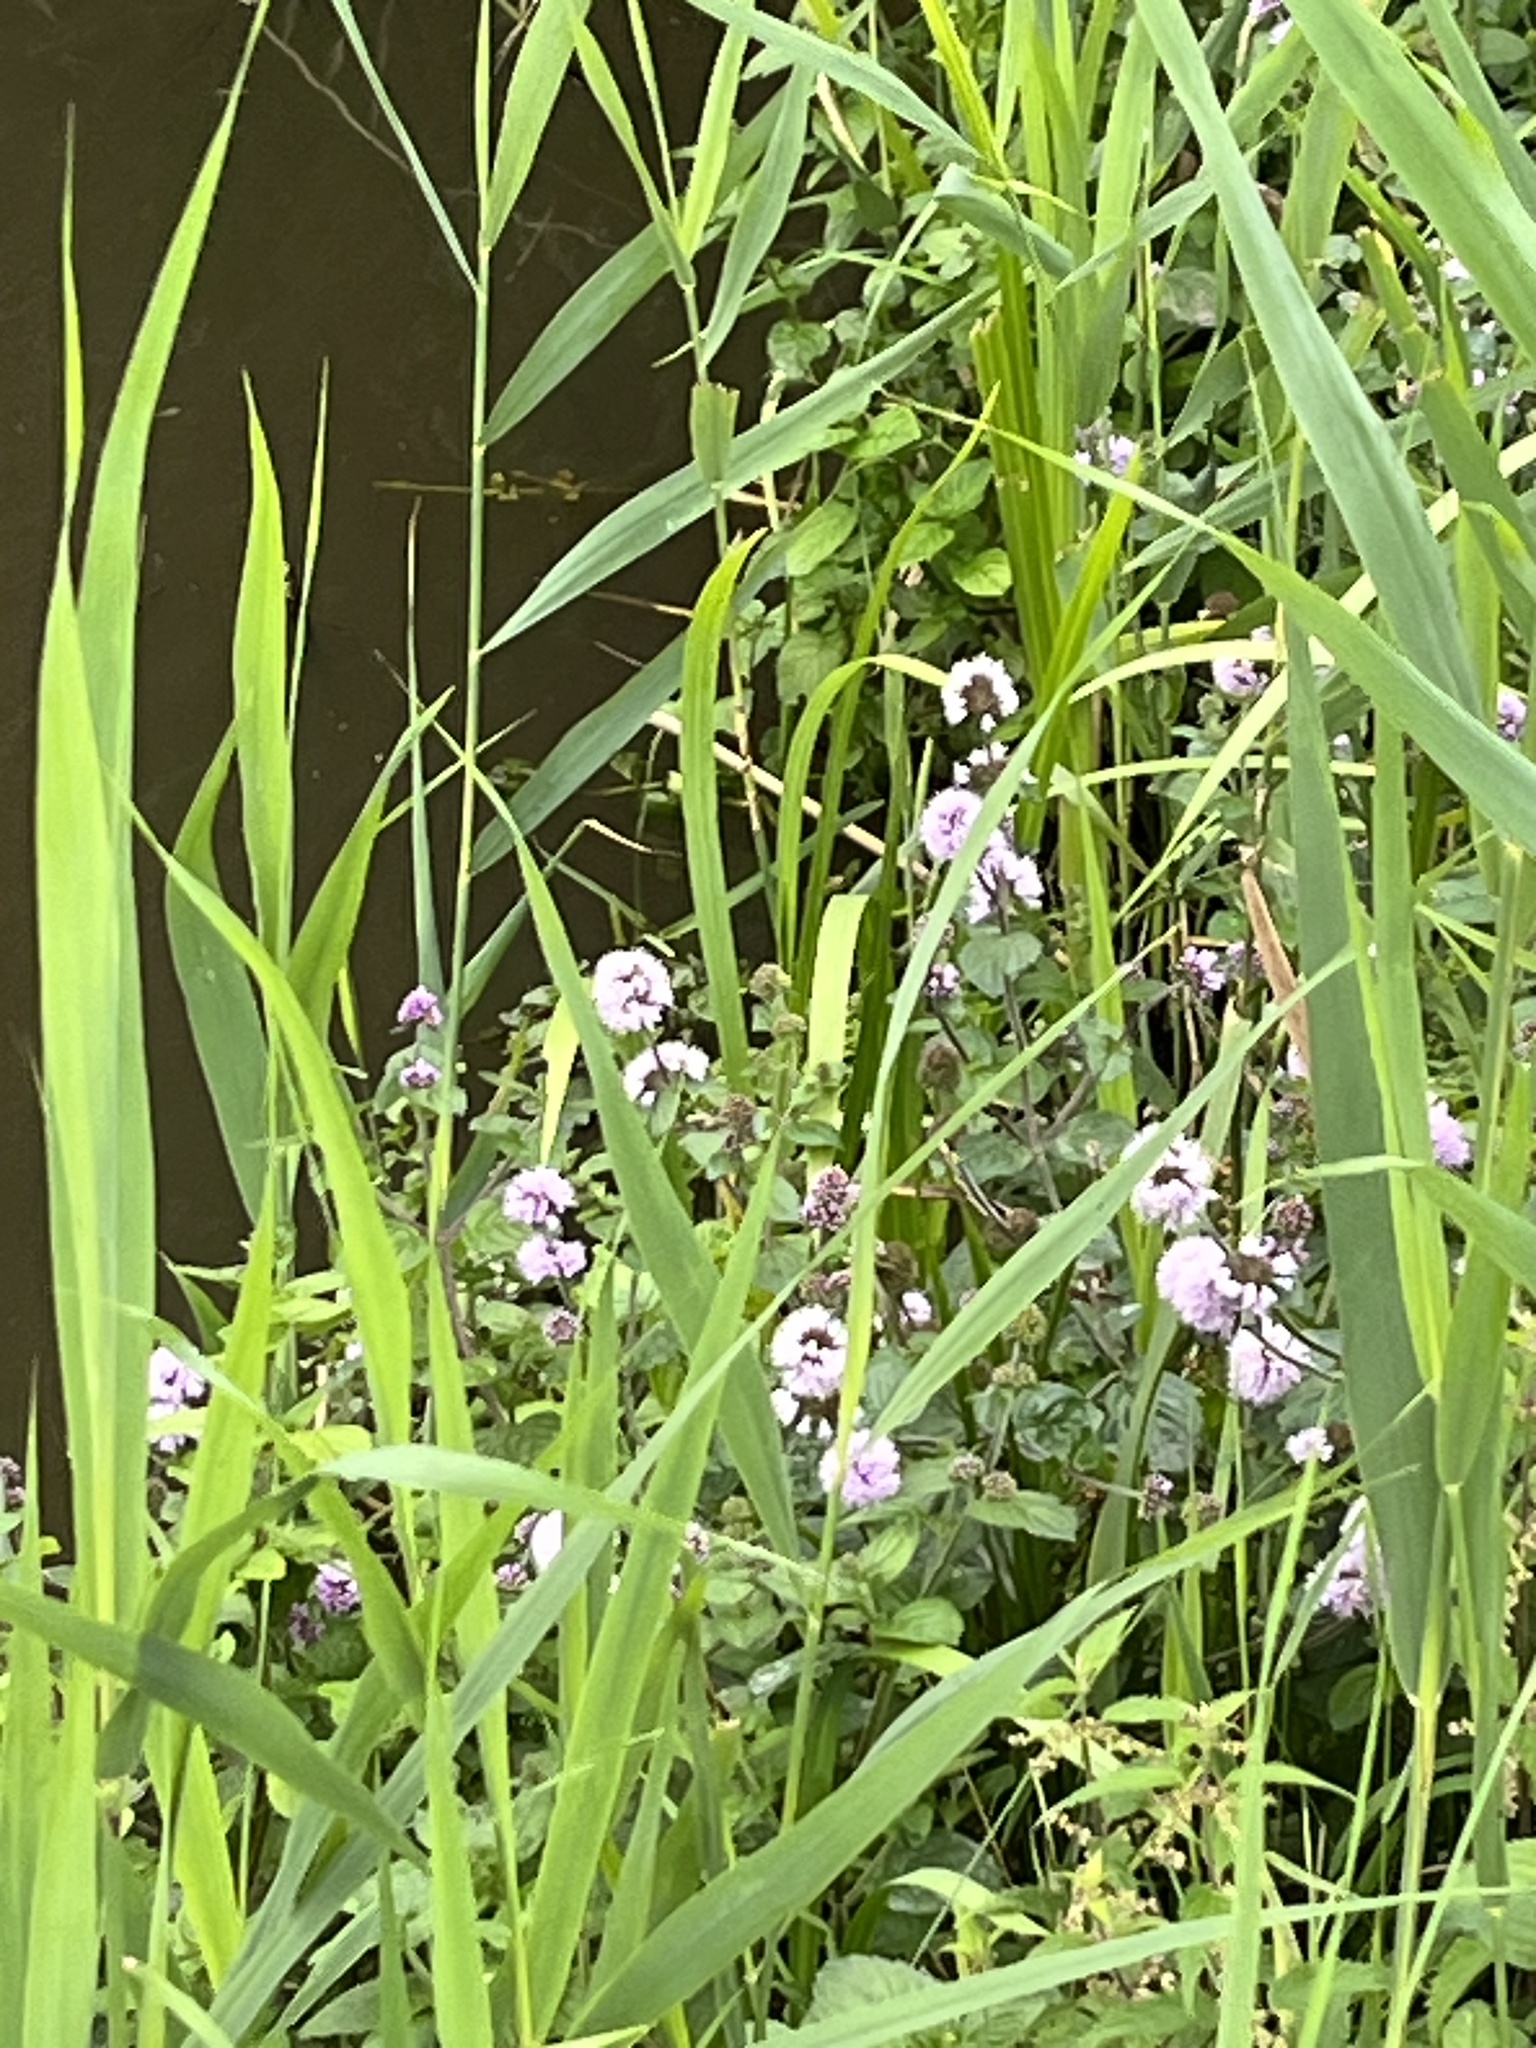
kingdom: Plantae
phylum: Tracheophyta
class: Magnoliopsida
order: Lamiales
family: Lamiaceae
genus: Mentha
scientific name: Mentha aquatica
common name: Water mint
